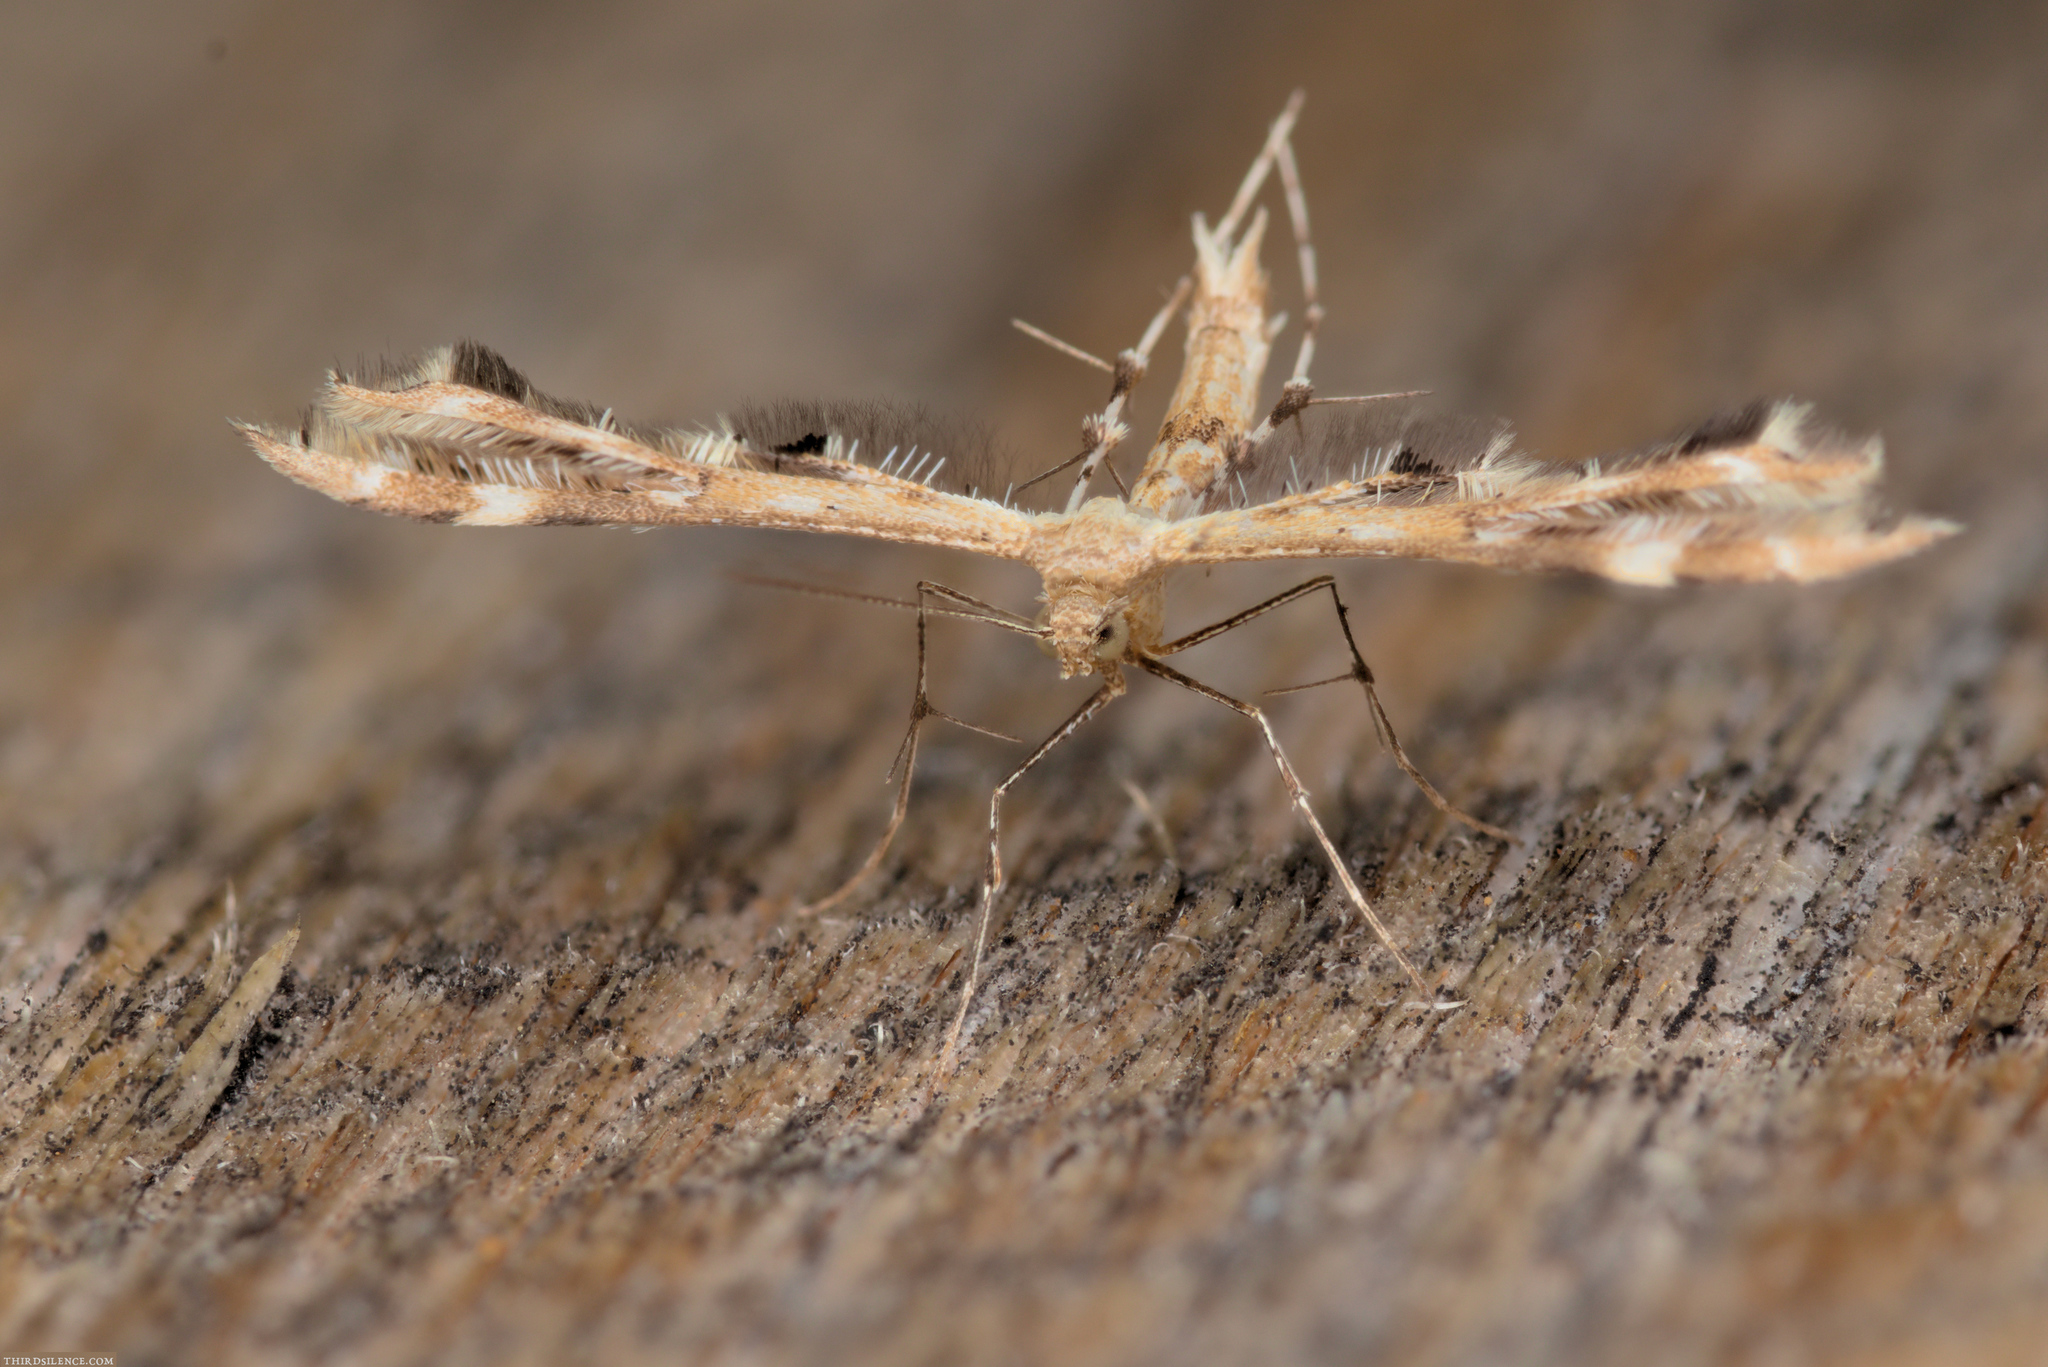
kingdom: Animalia
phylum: Arthropoda
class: Insecta
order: Lepidoptera
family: Pterophoridae
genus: Sphenarches
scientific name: Sphenarches anisodactylus
